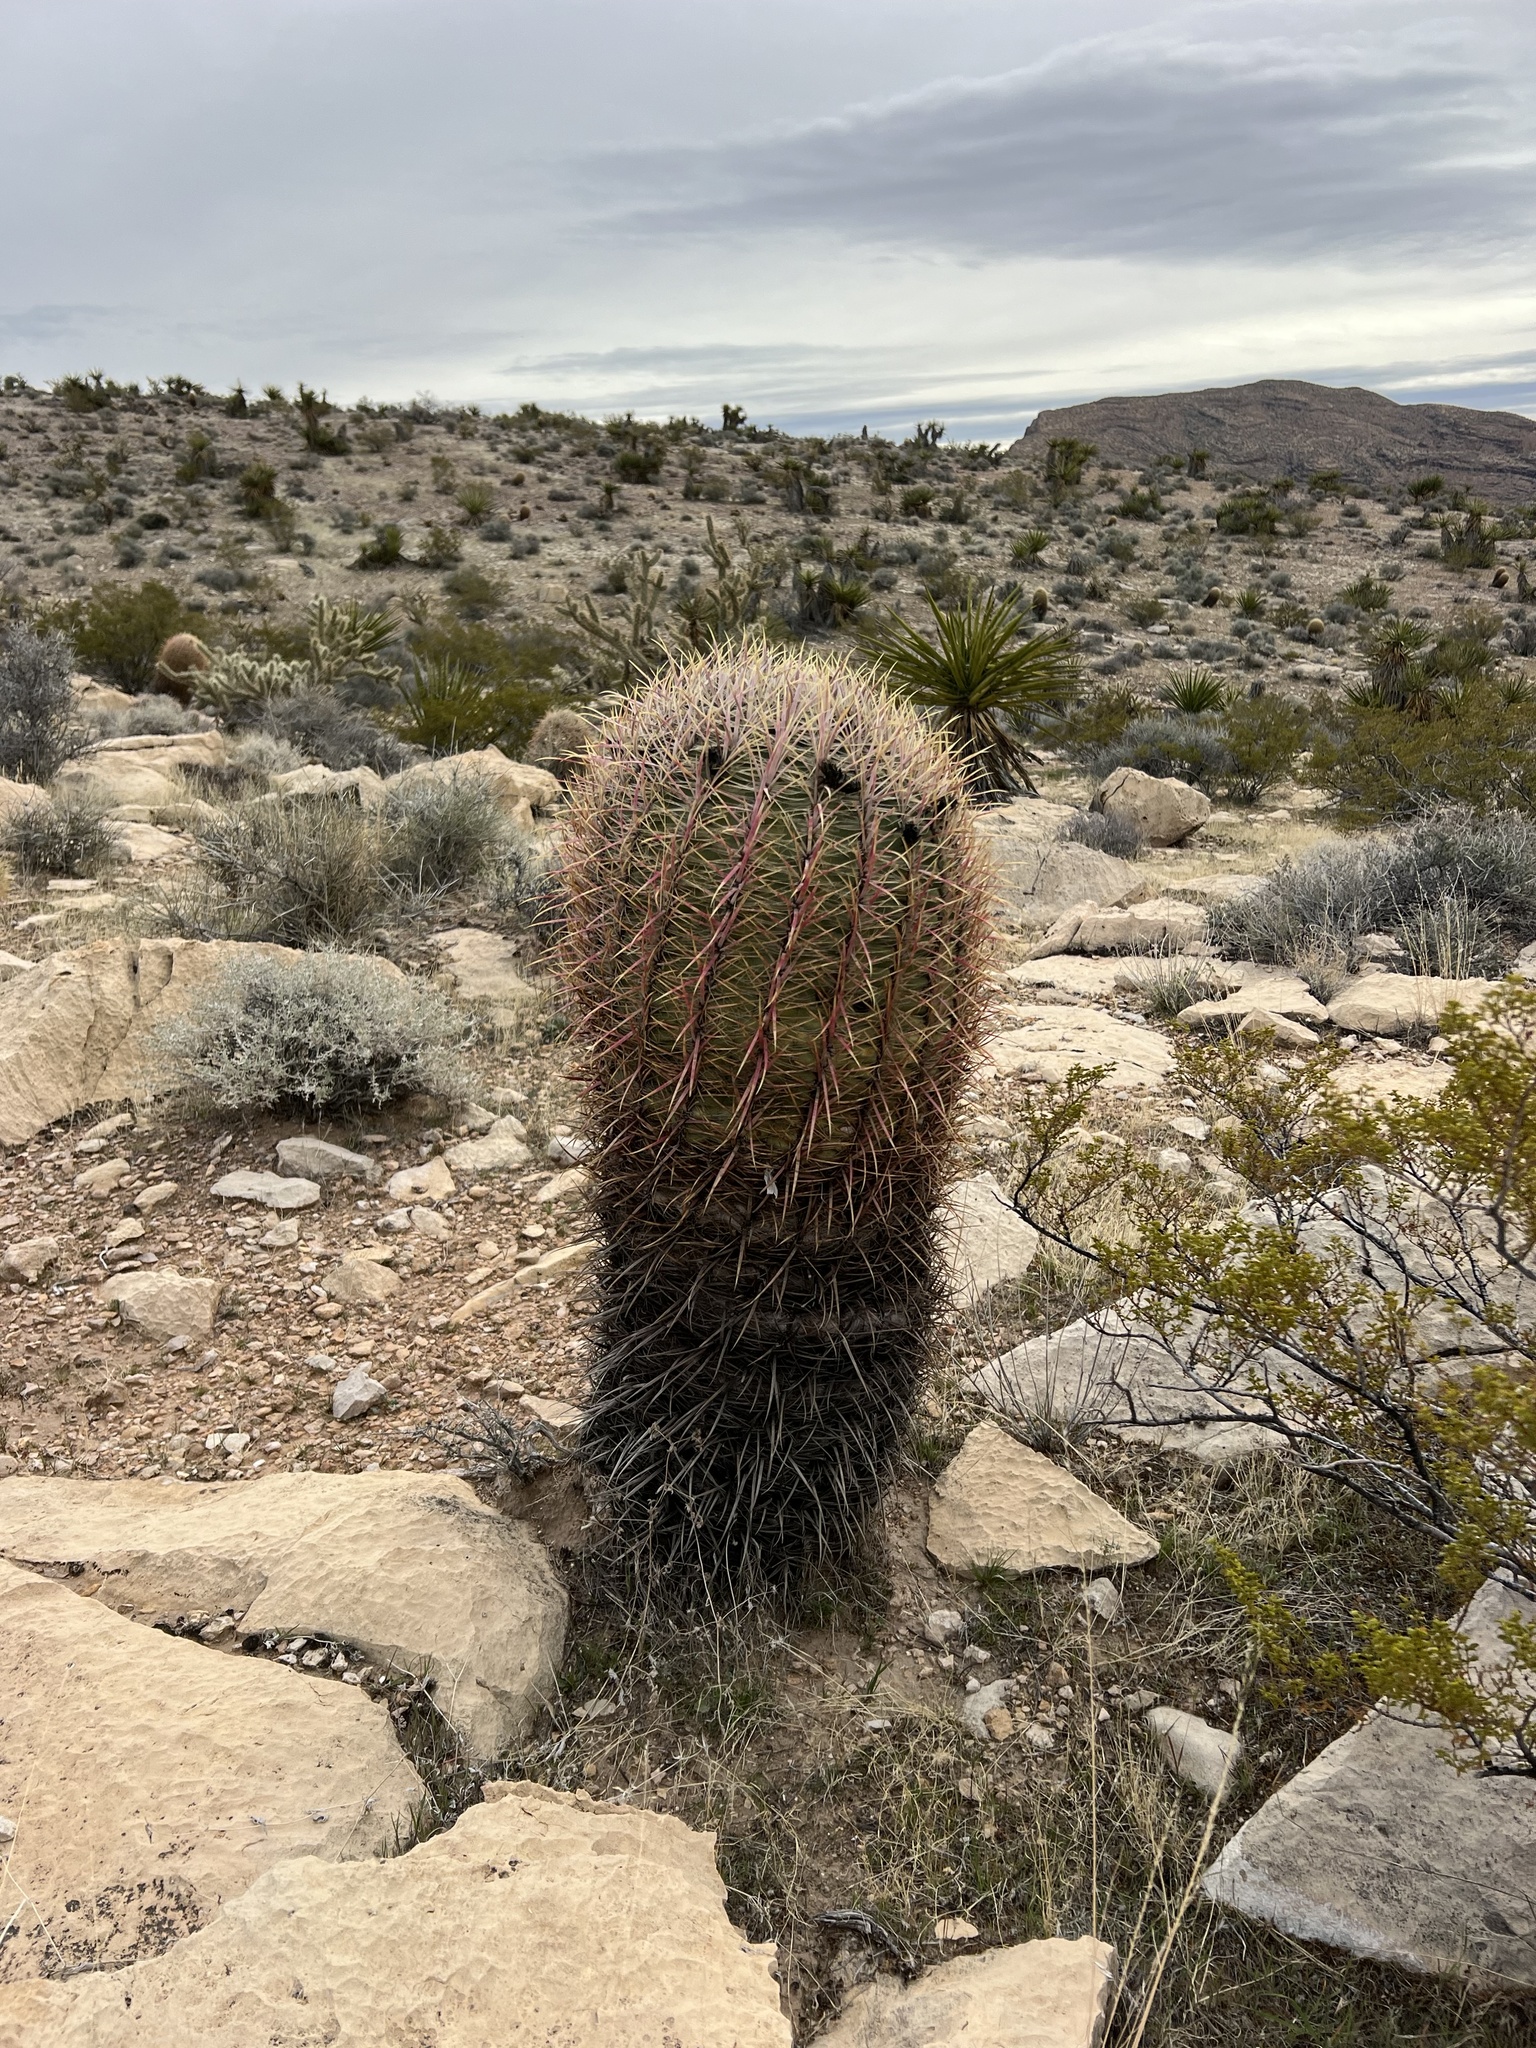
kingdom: Plantae
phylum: Tracheophyta
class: Magnoliopsida
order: Caryophyllales
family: Cactaceae
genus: Ferocactus
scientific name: Ferocactus cylindraceus
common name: California barrel cactus
